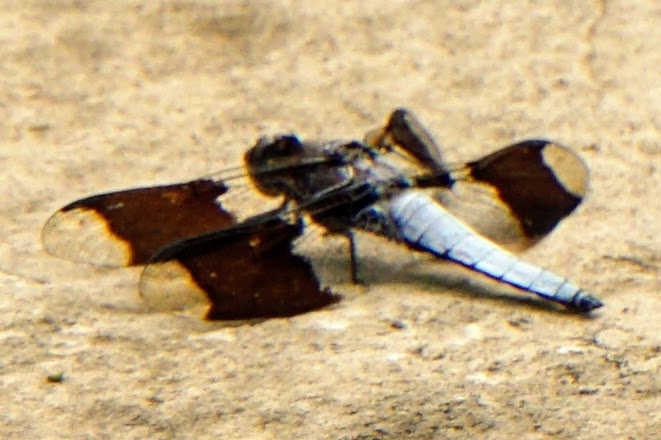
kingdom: Animalia
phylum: Arthropoda
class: Insecta
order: Odonata
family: Libellulidae
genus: Plathemis
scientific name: Plathemis lydia
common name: Common whitetail
